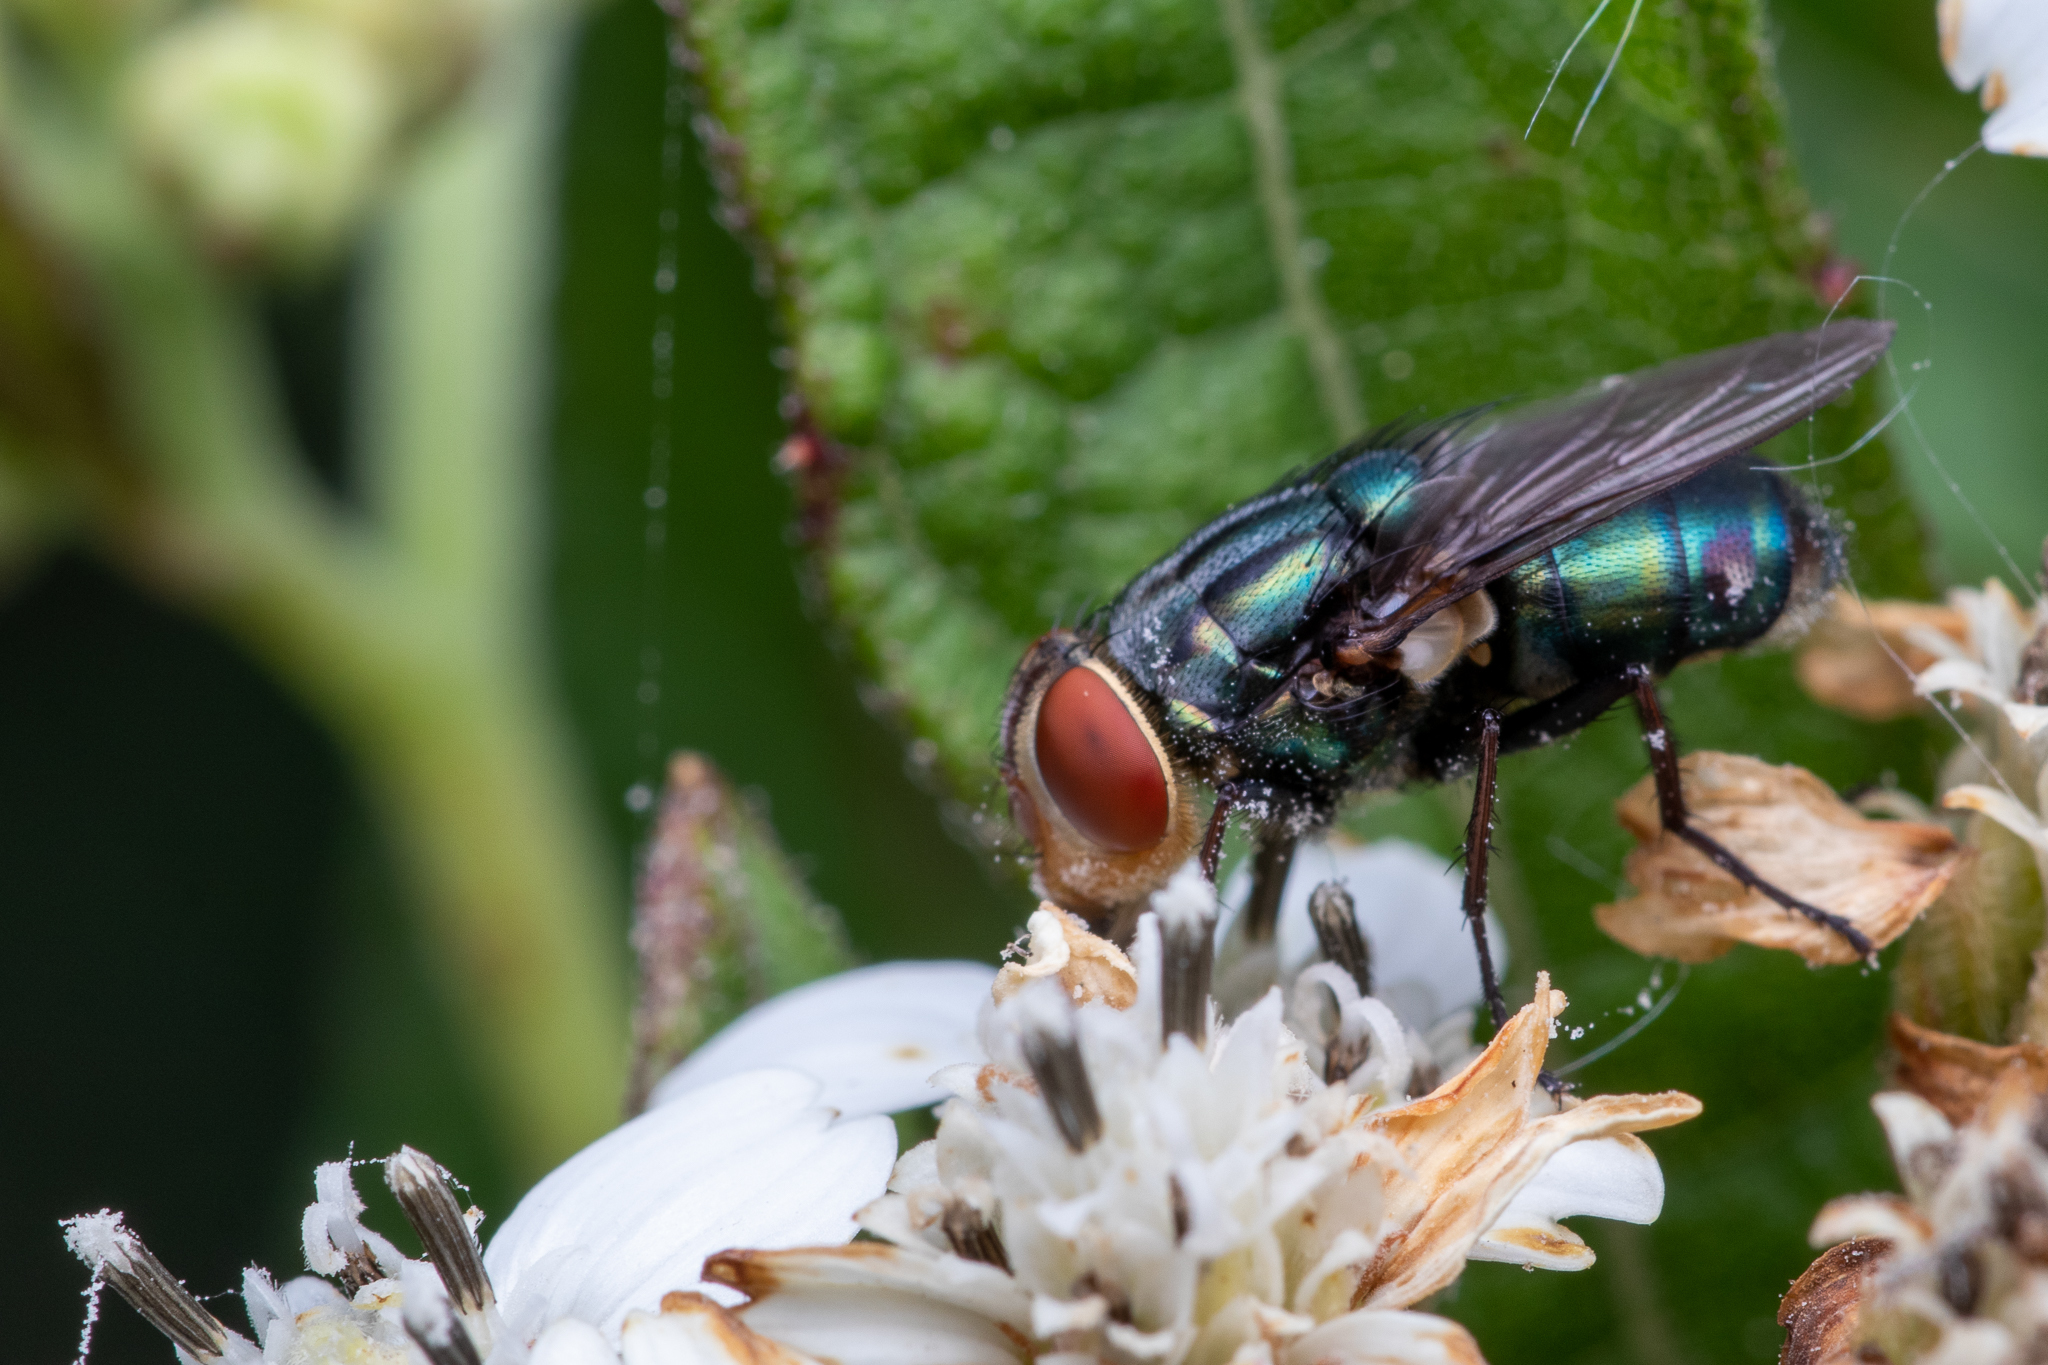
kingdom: Animalia
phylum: Arthropoda
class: Insecta
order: Diptera
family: Calliphoridae
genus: Cochliomyia
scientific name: Cochliomyia macellaria
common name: Secondary screwworm
